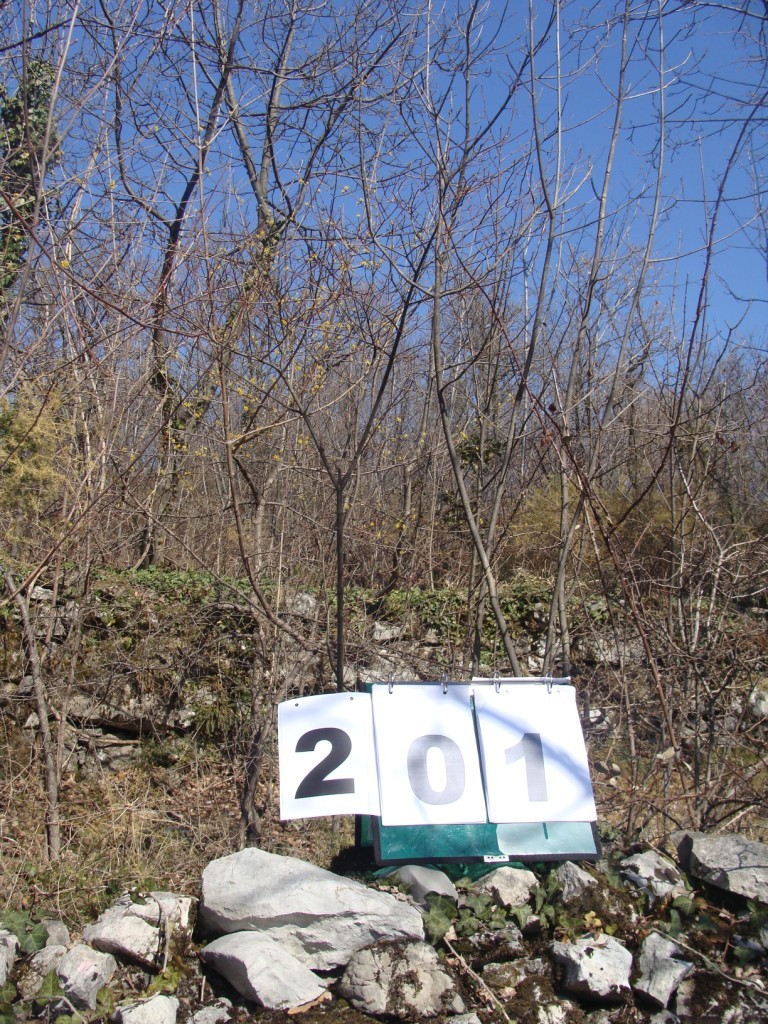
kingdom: Plantae
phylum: Tracheophyta
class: Magnoliopsida
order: Cornales
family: Cornaceae
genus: Cornus
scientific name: Cornus mas
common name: Cornelian-cherry
